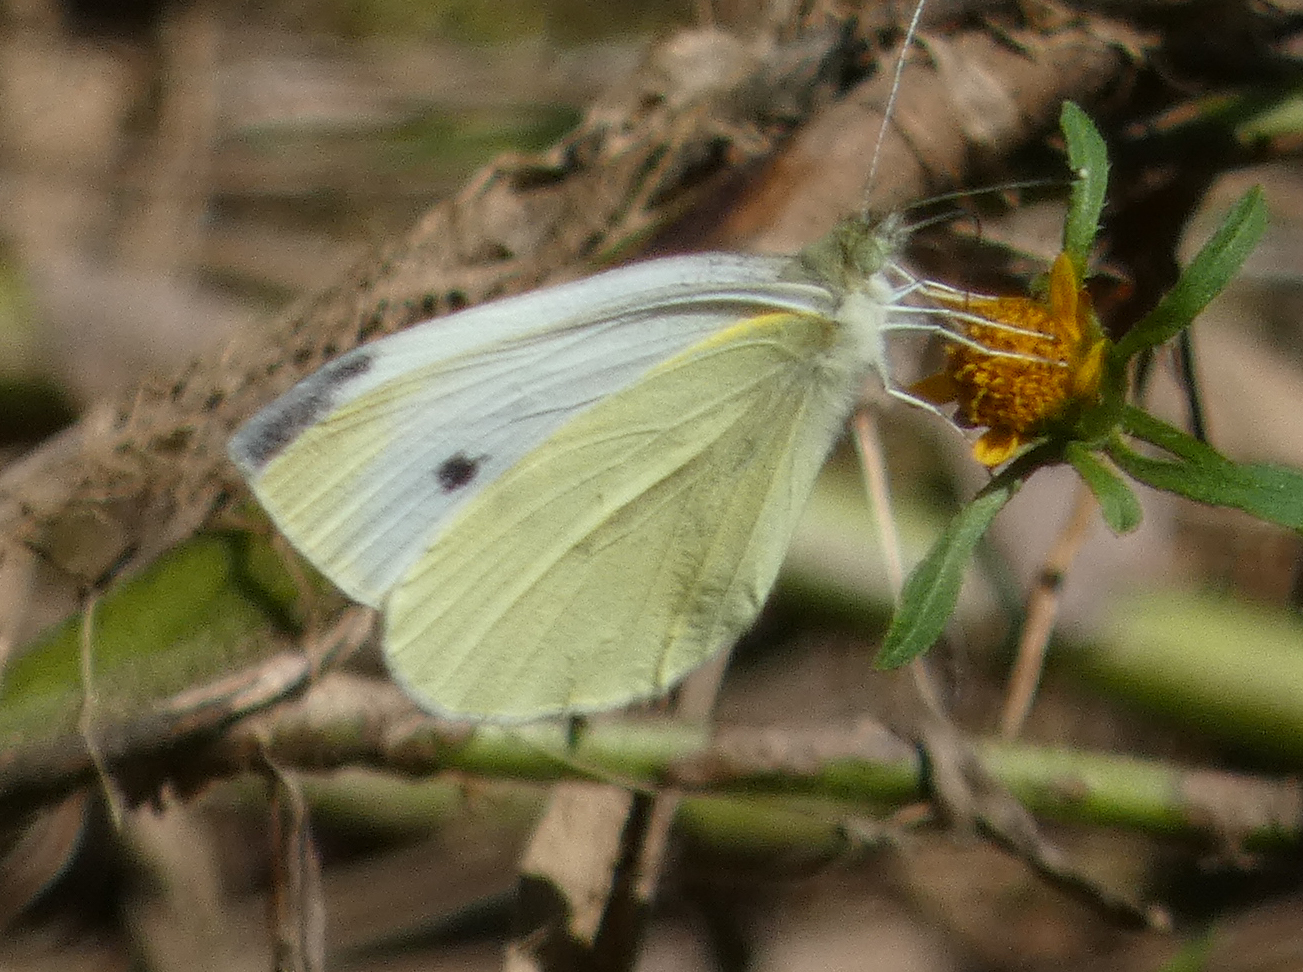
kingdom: Animalia
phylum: Arthropoda
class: Insecta
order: Lepidoptera
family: Pieridae
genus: Pieris
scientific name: Pieris rapae
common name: Small white
